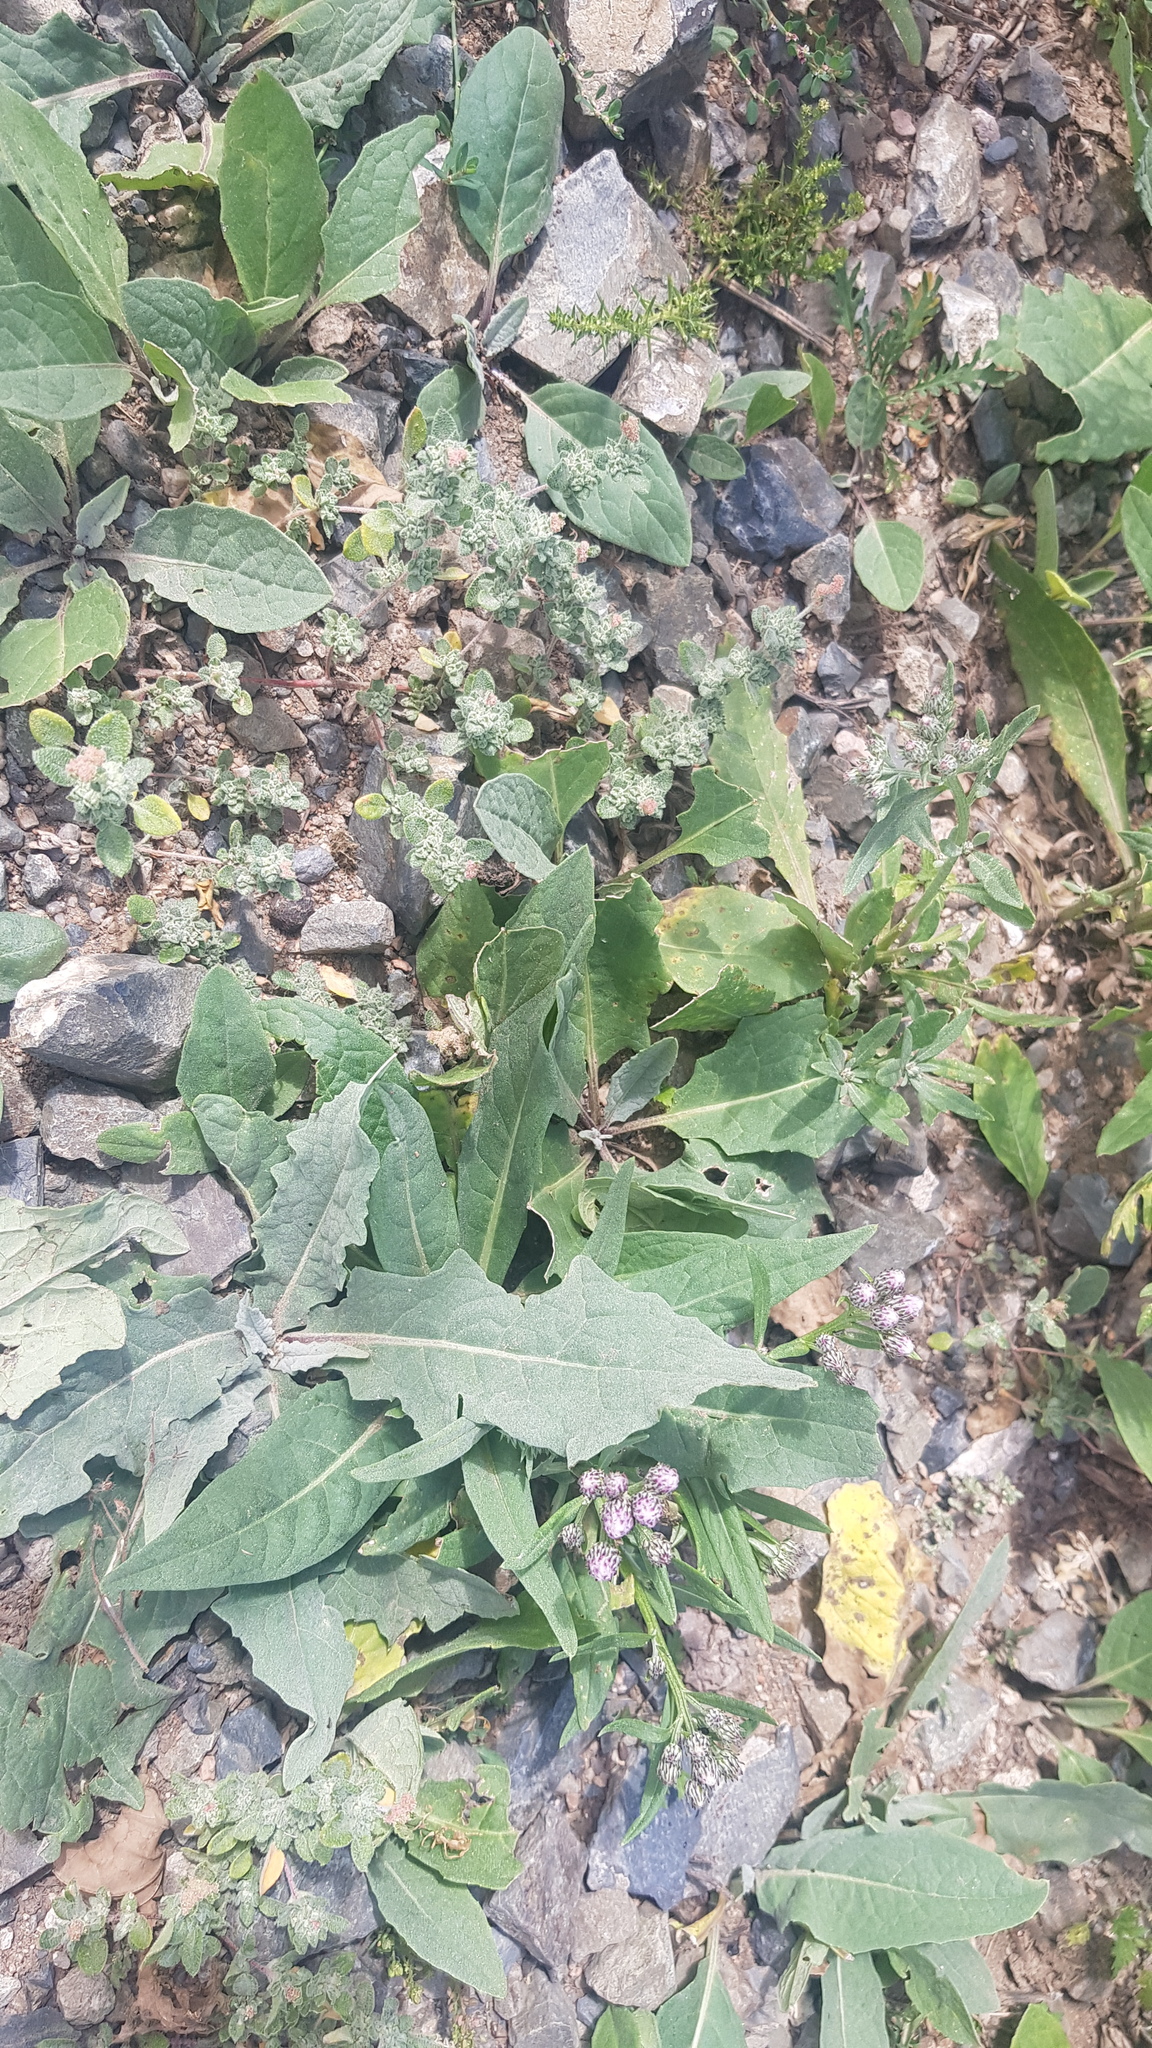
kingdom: Plantae
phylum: Tracheophyta
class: Magnoliopsida
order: Asterales
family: Asteraceae
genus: Saussurea
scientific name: Saussurea amara
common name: Alberta sawwort
